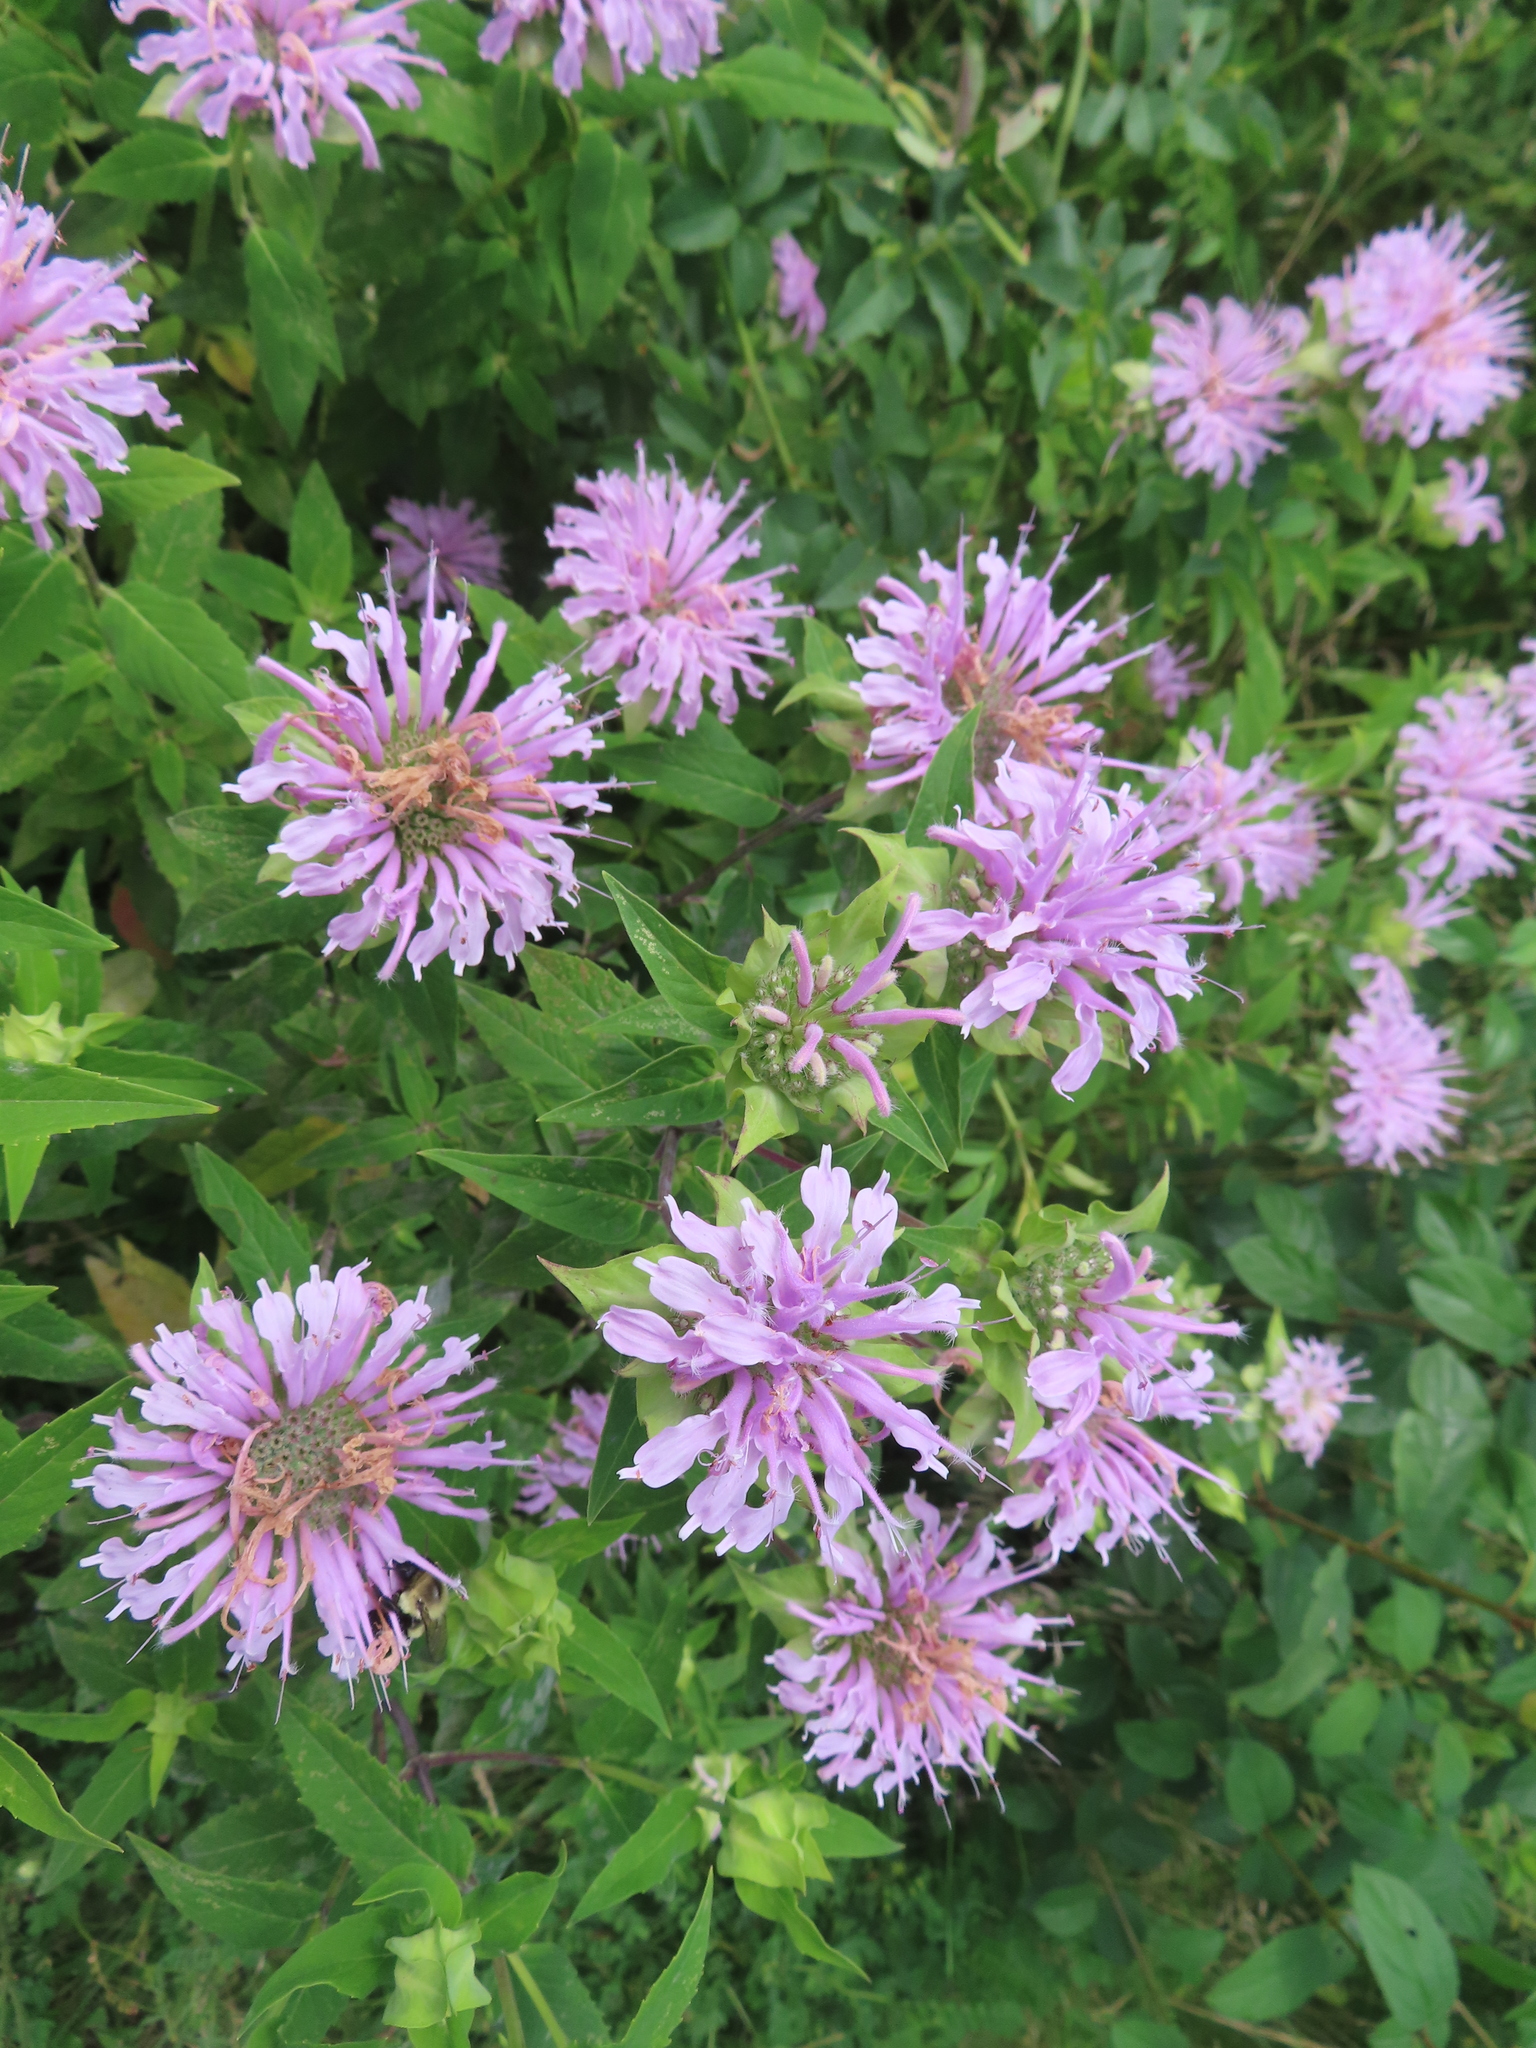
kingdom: Plantae
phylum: Tracheophyta
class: Magnoliopsida
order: Lamiales
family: Lamiaceae
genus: Monarda
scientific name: Monarda fistulosa
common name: Purple beebalm
